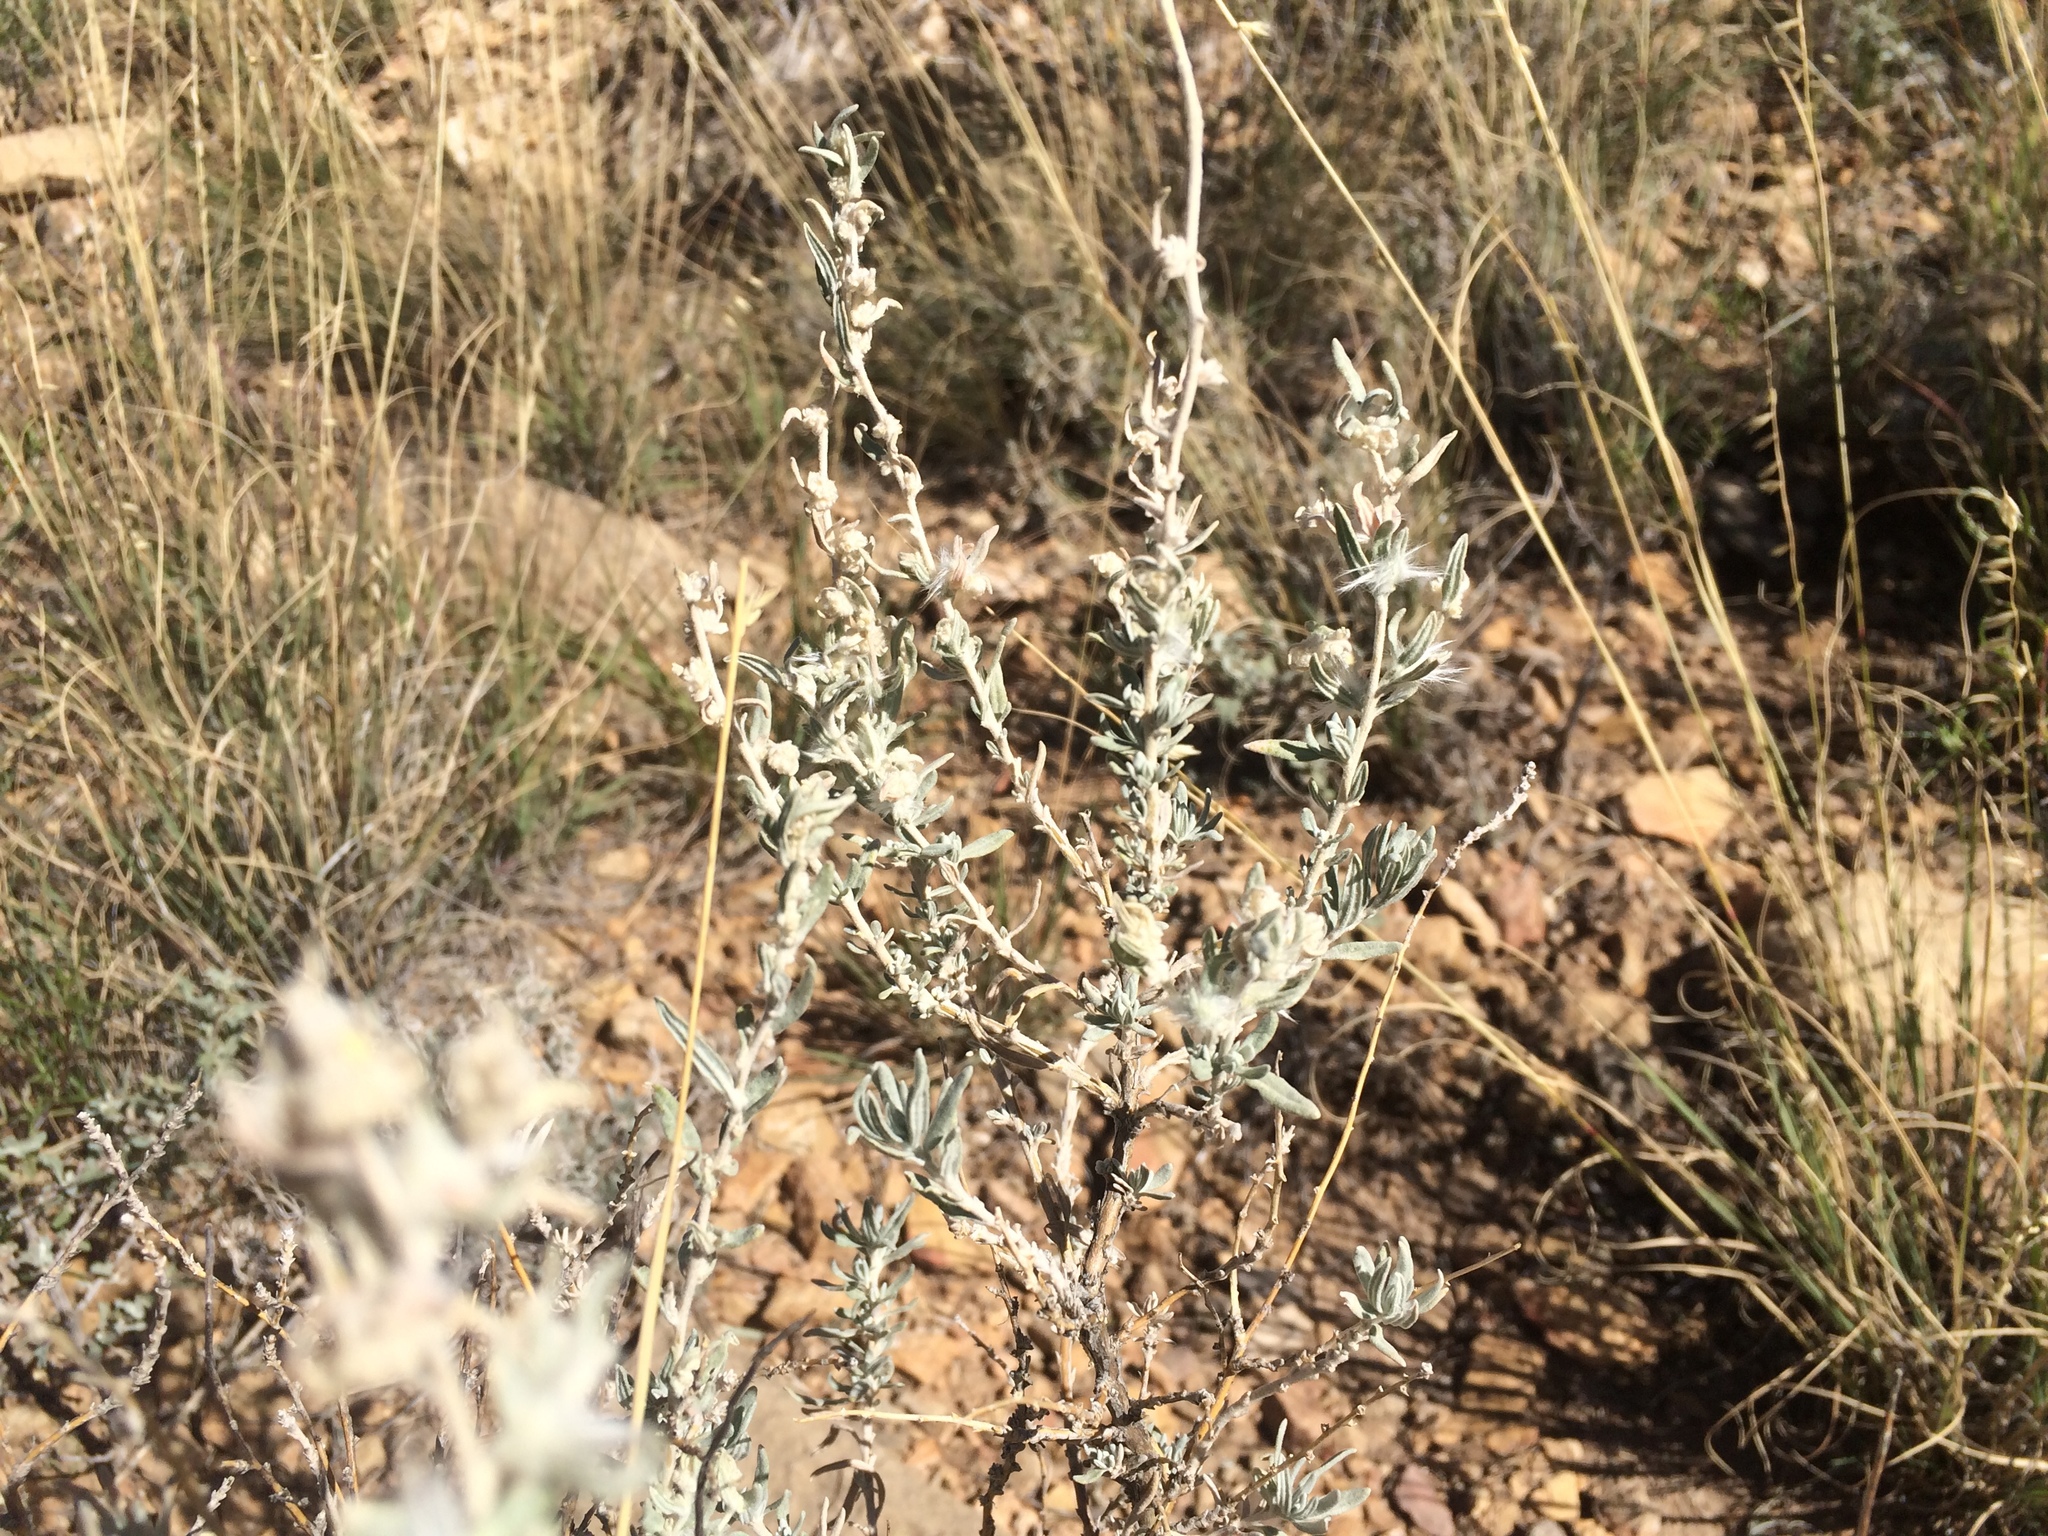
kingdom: Plantae
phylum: Tracheophyta
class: Magnoliopsida
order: Caryophyllales
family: Amaranthaceae
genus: Krascheninnikovia
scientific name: Krascheninnikovia lanata
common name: Winterfat
